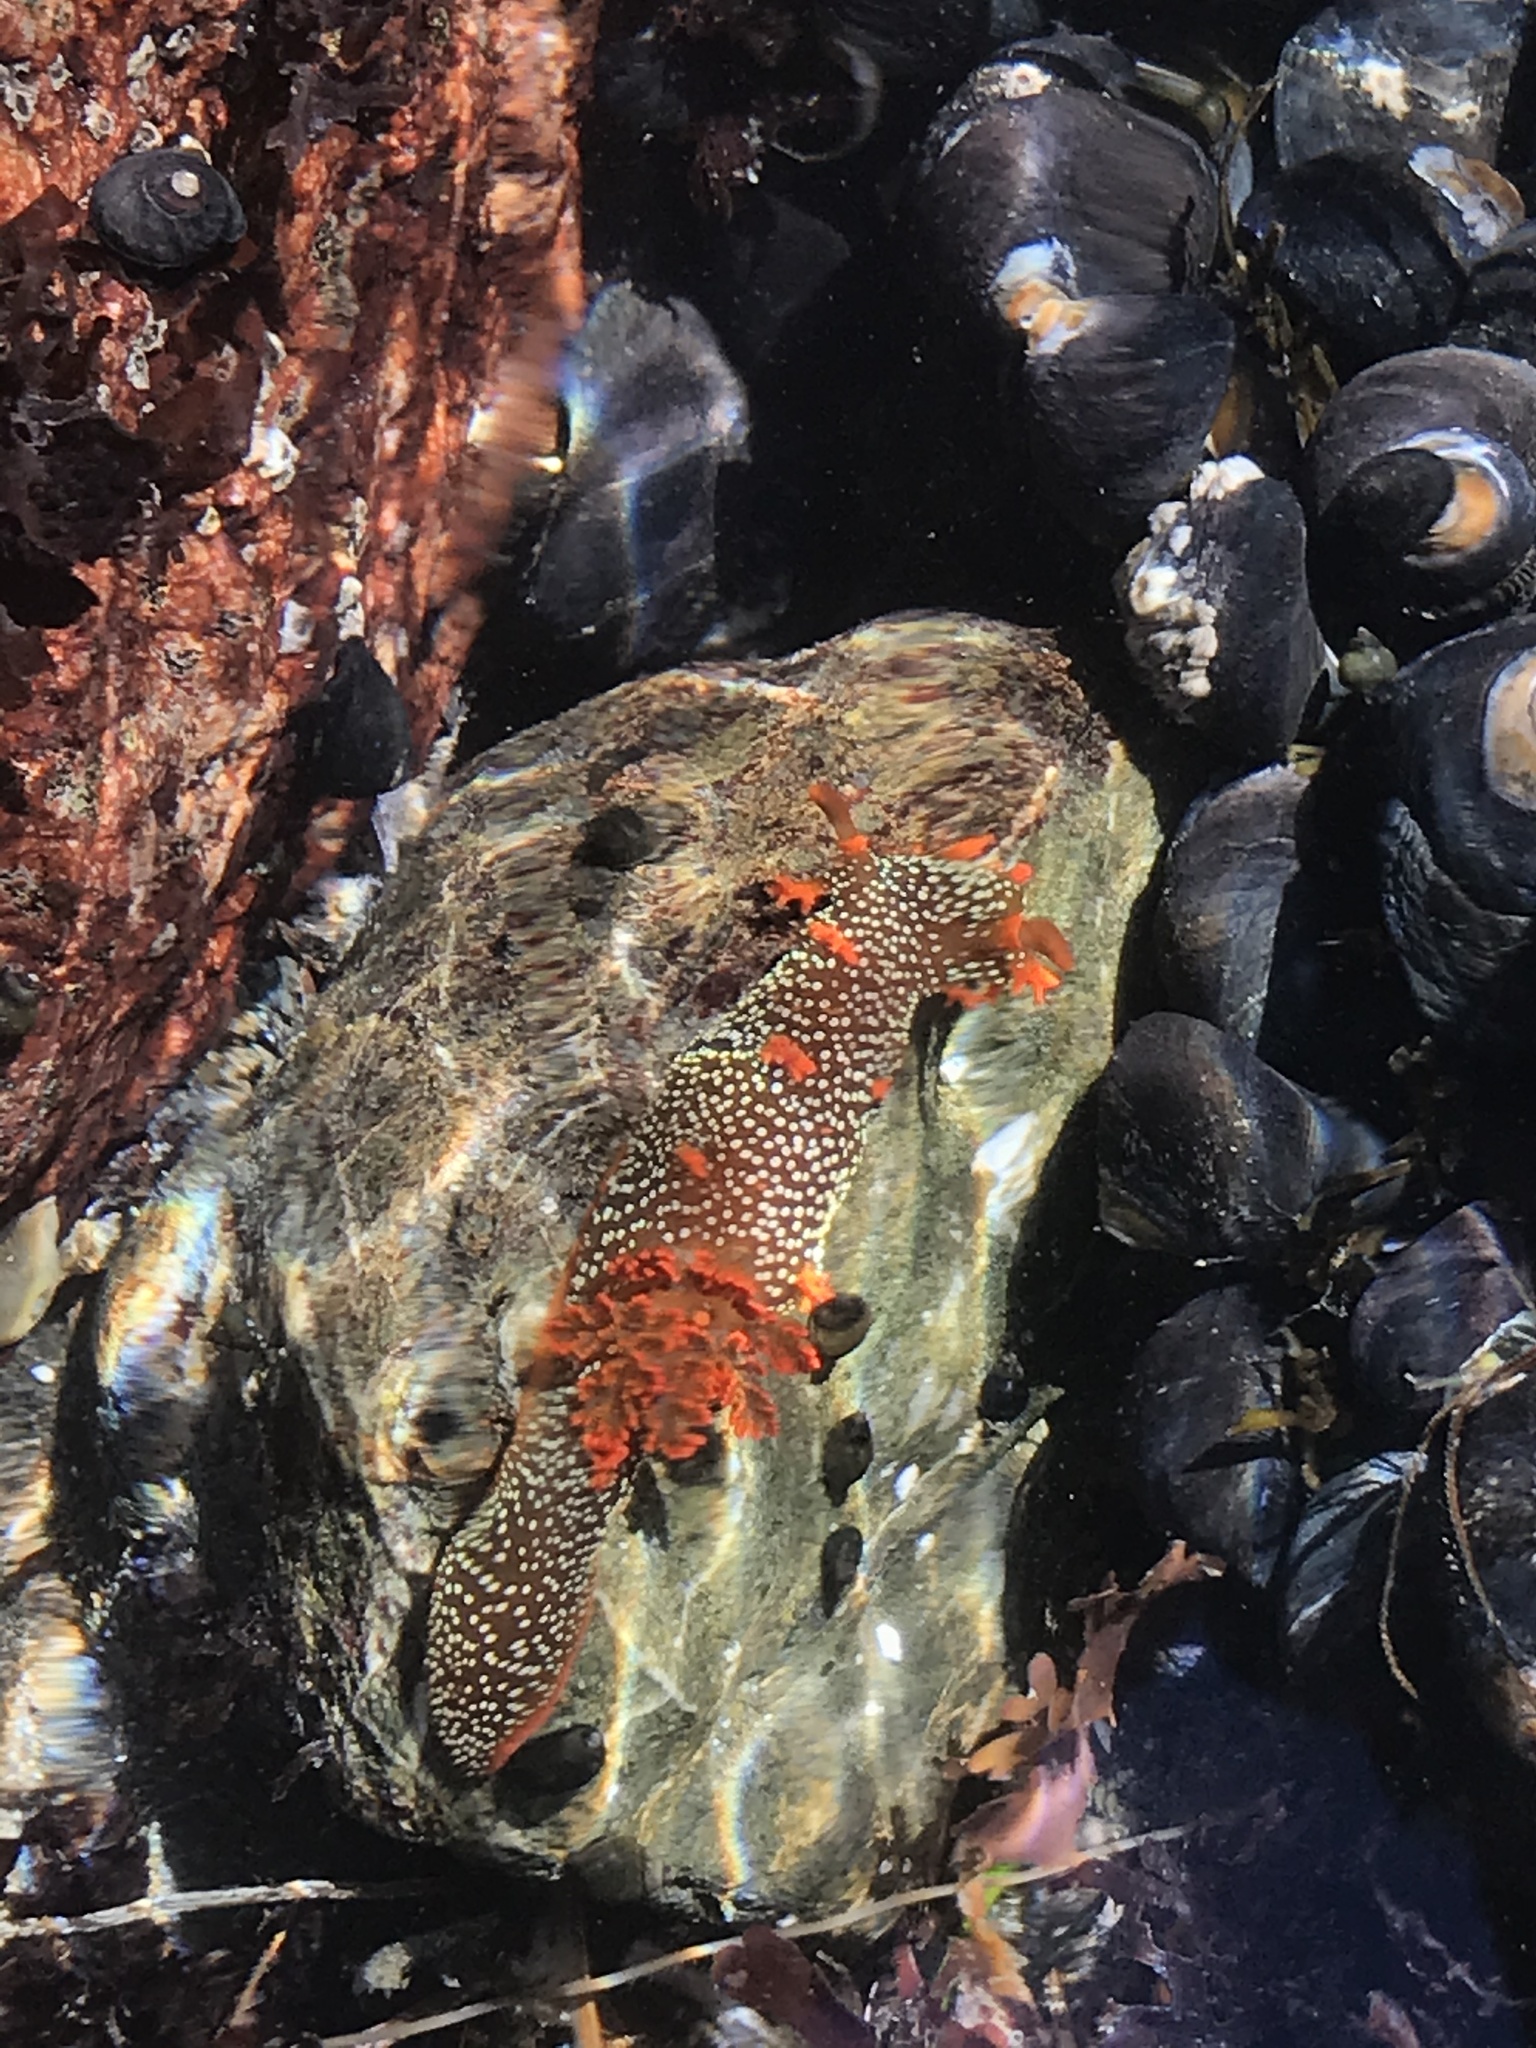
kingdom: Animalia
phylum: Mollusca
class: Gastropoda
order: Nudibranchia
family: Polyceridae
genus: Triopha
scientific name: Triopha maculata
